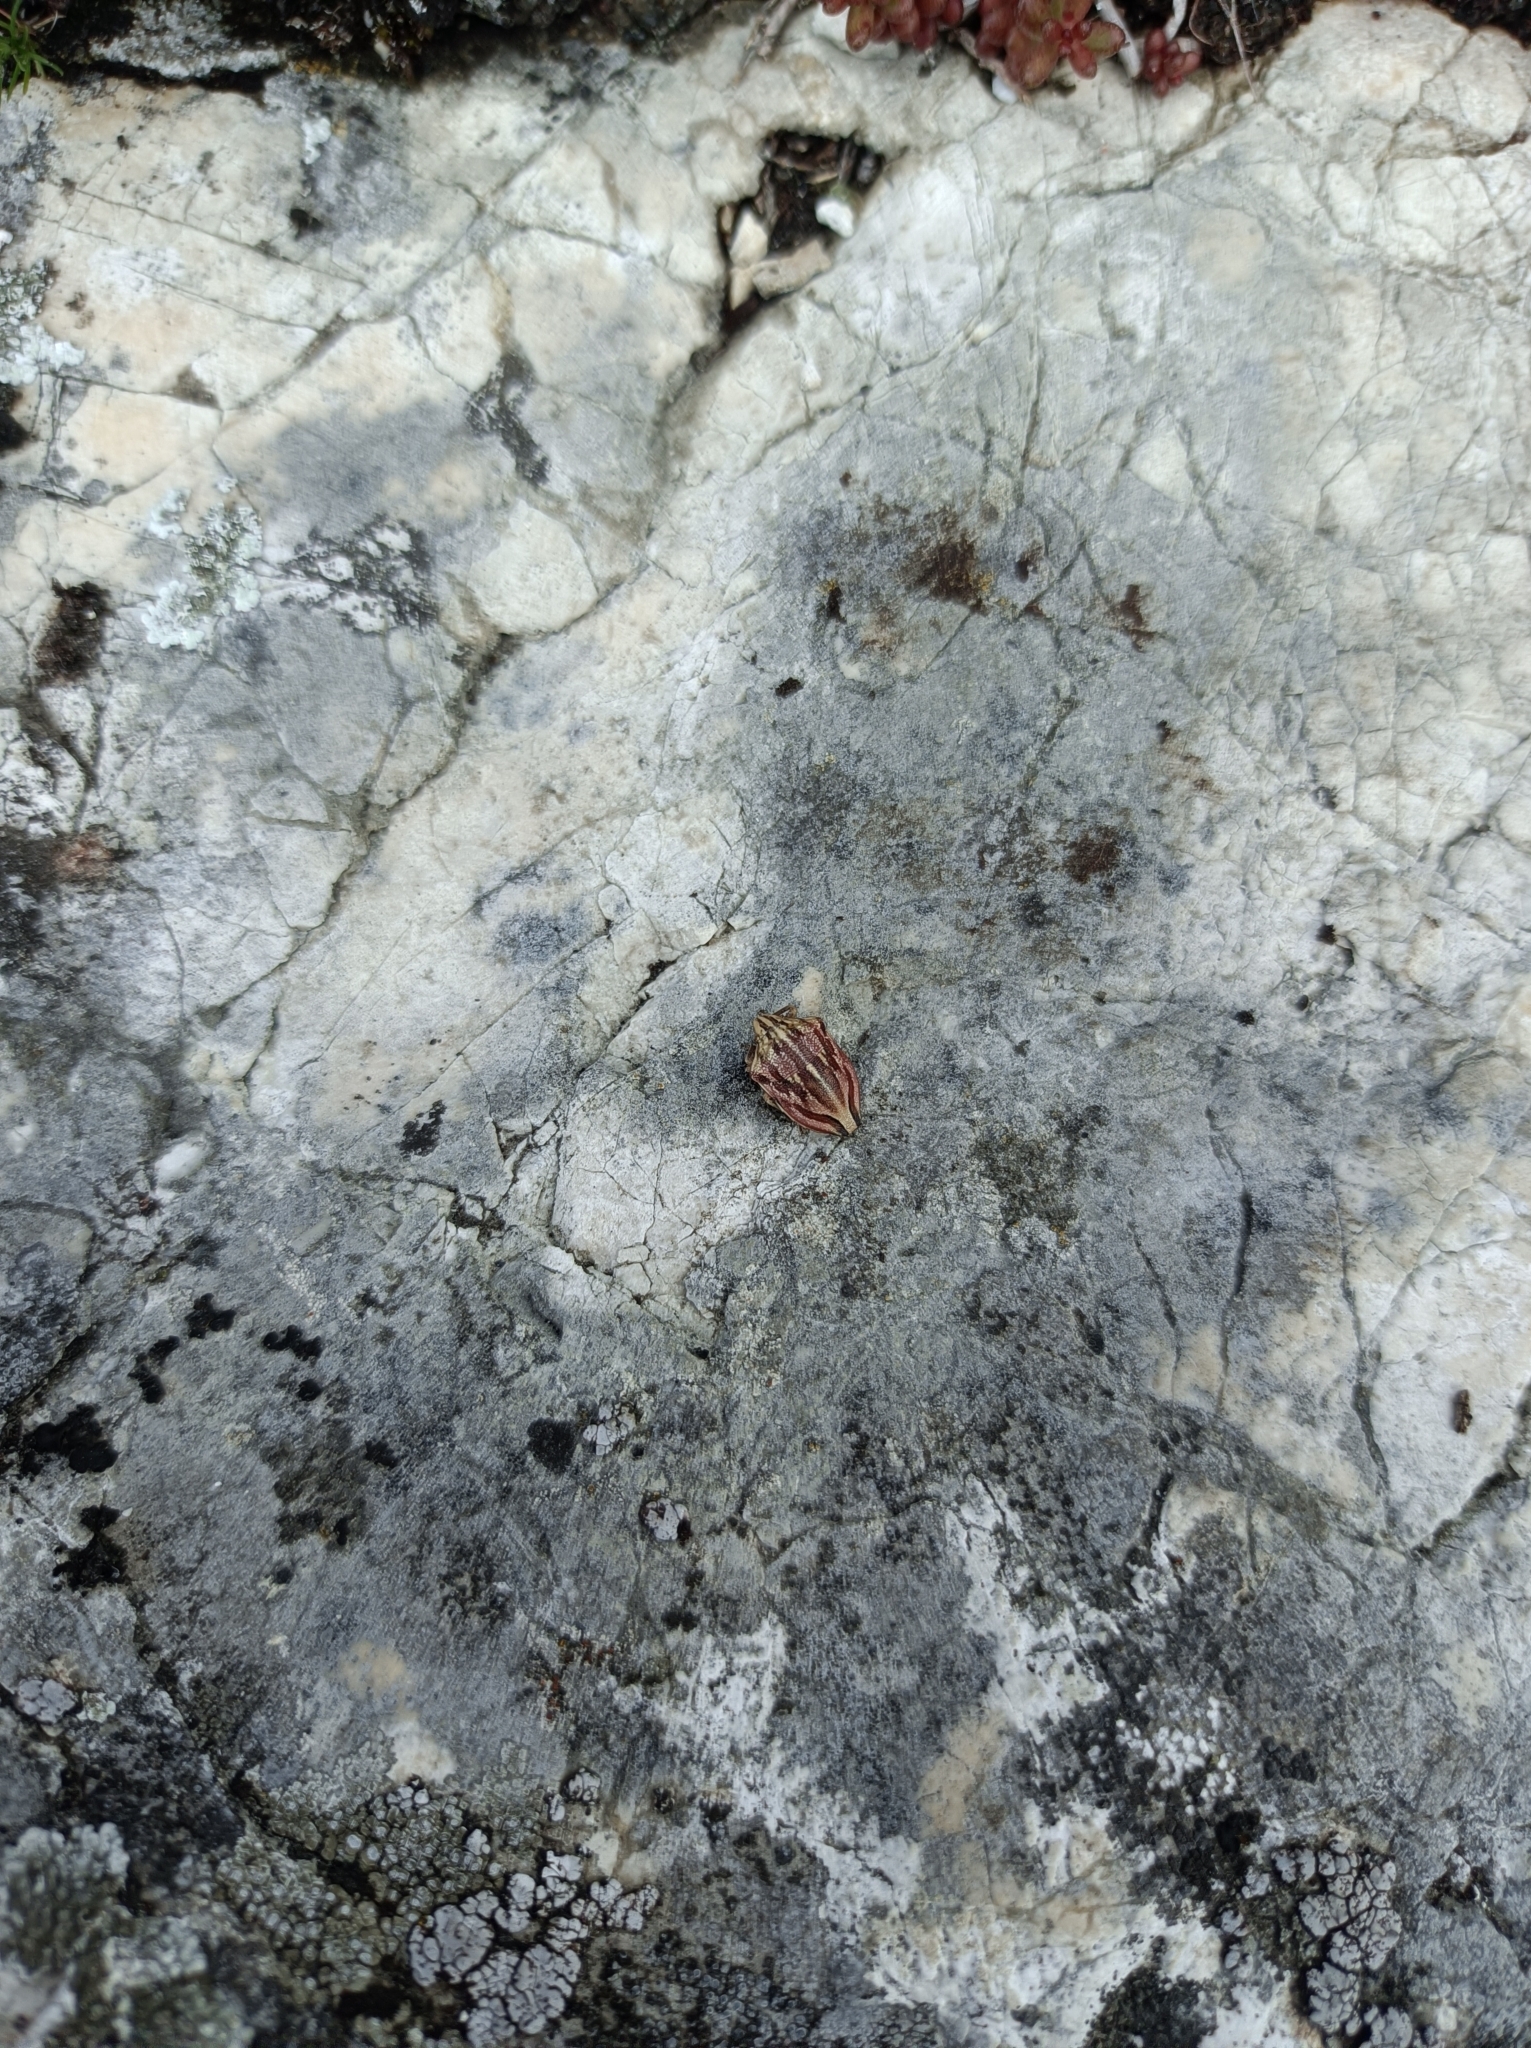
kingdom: Animalia
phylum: Arthropoda
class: Insecta
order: Hemiptera
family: Scutelleridae
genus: Odontotarsus
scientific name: Odontotarsus purpureolineatus
